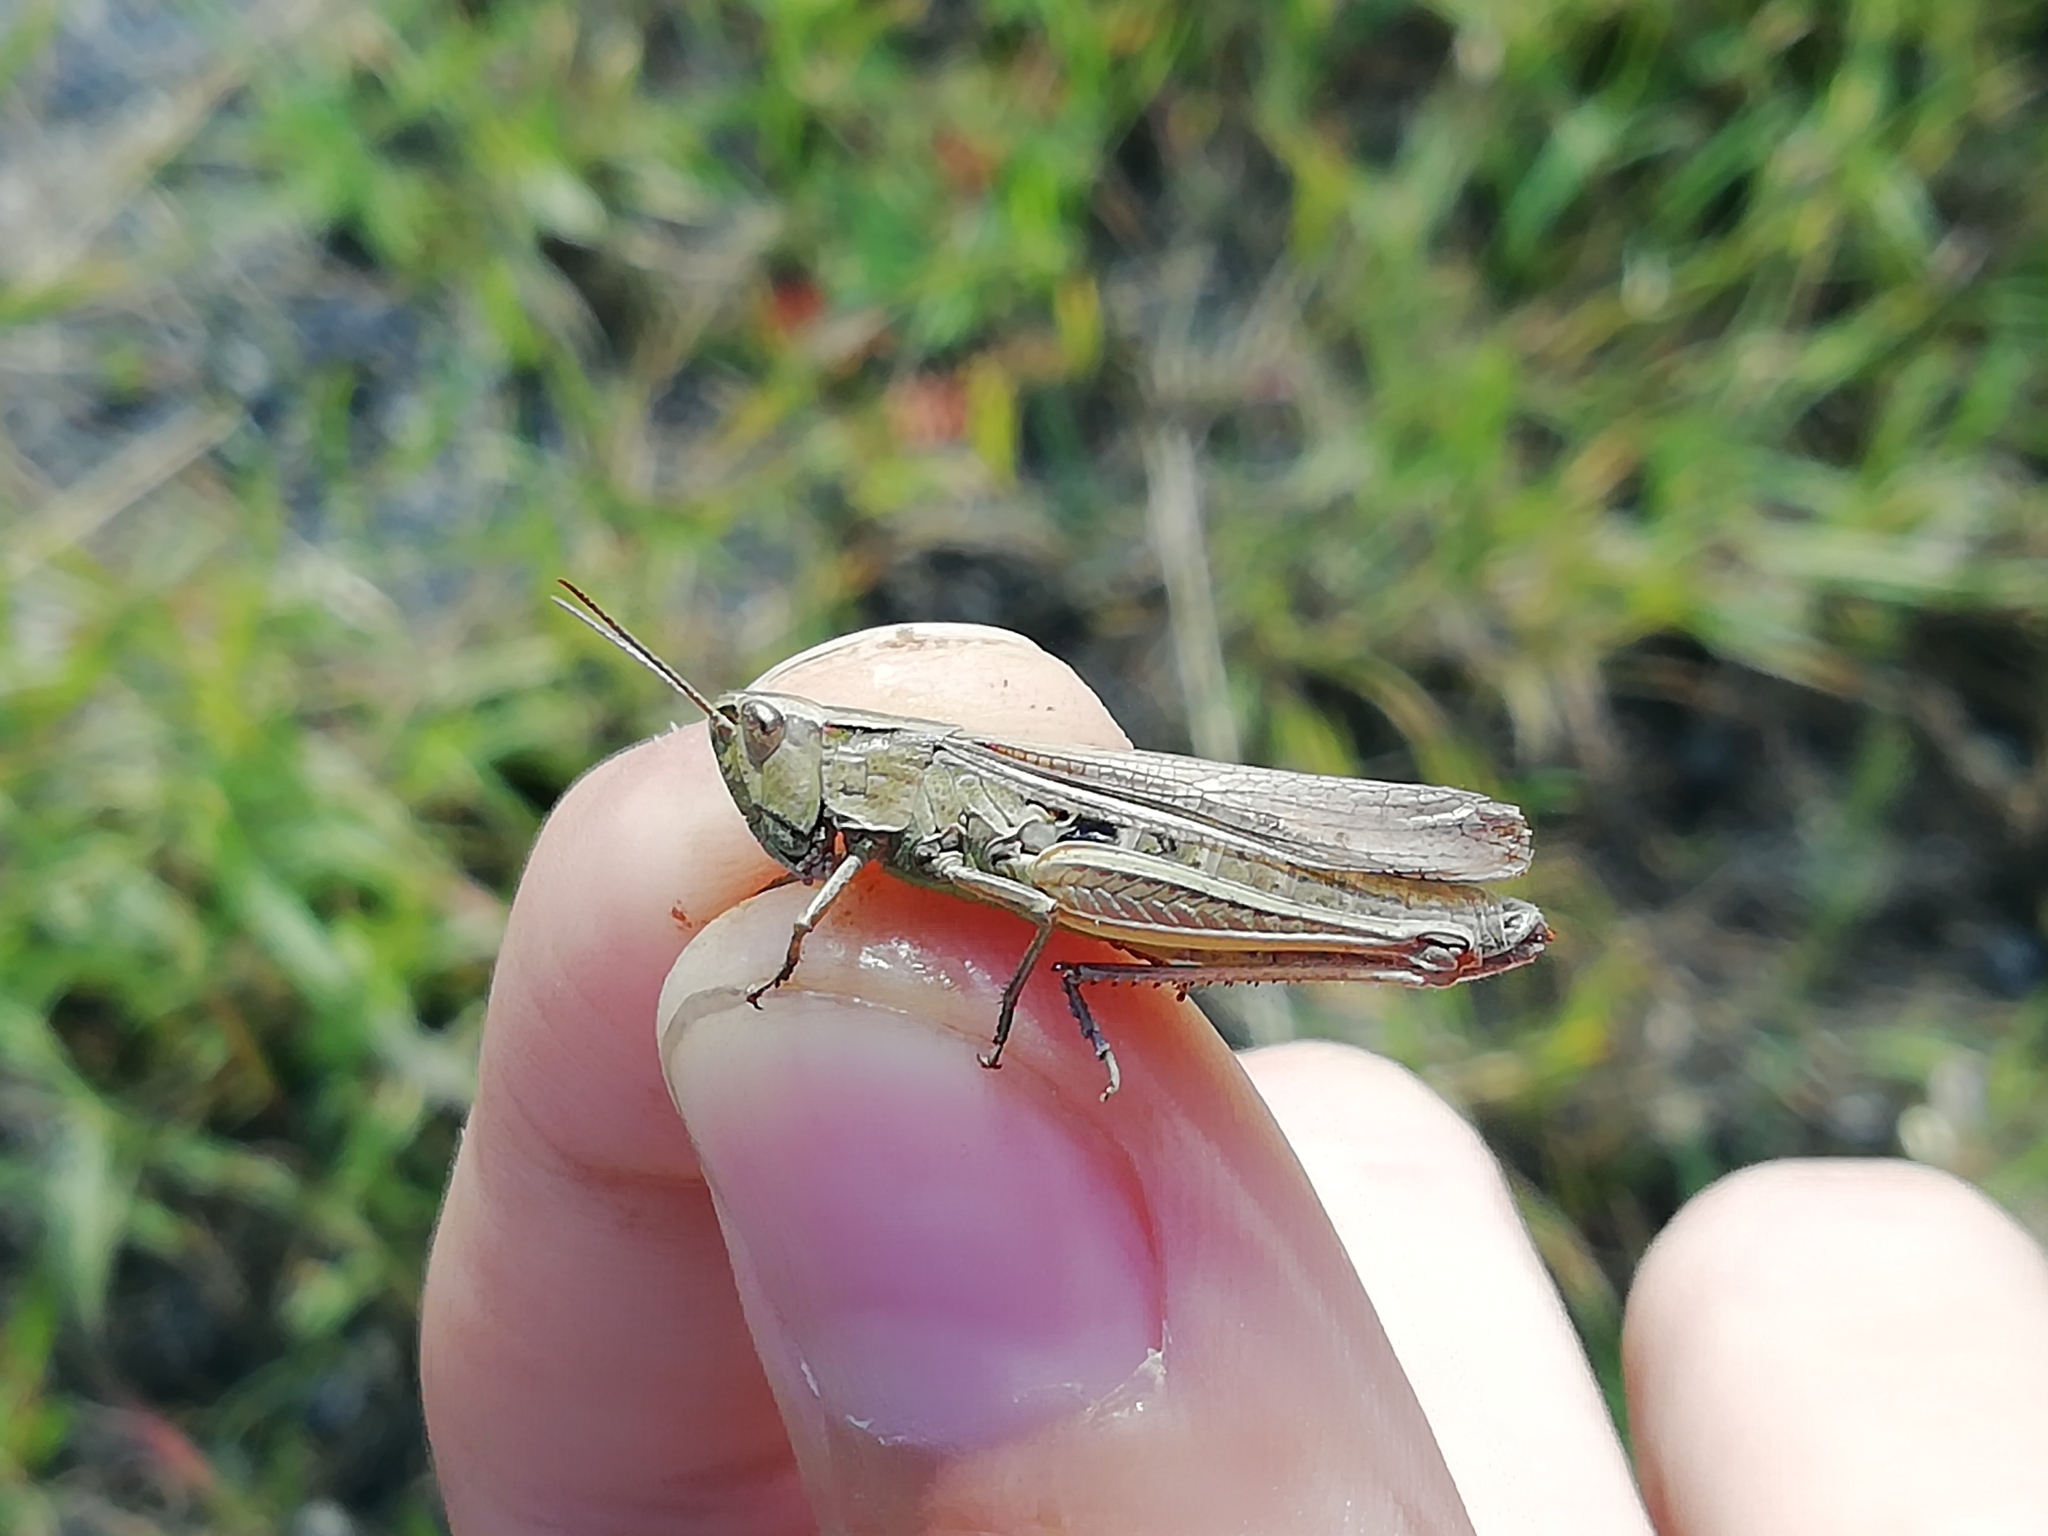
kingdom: Animalia
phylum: Arthropoda
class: Insecta
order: Orthoptera
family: Acrididae
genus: Chorthippus
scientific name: Chorthippus karelini
